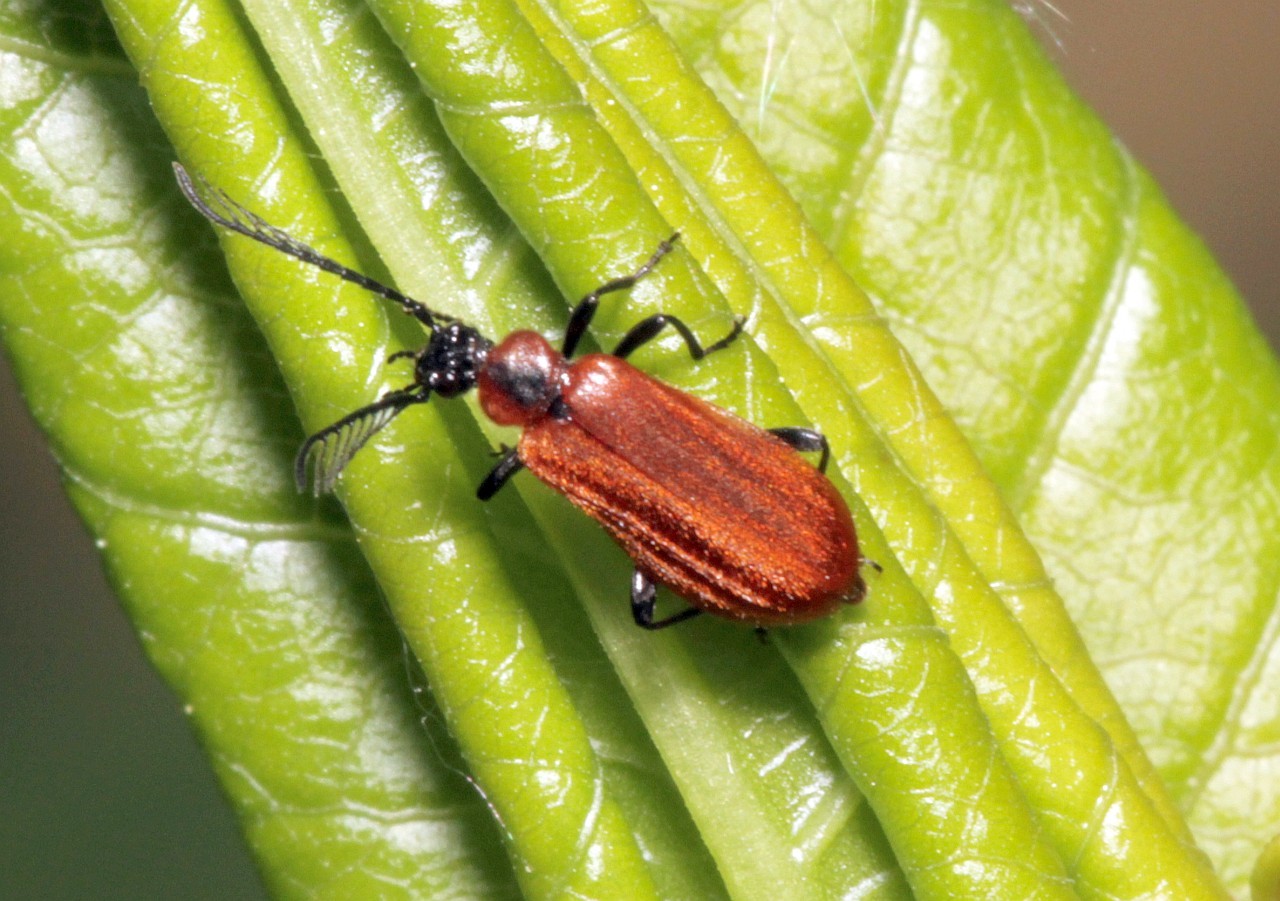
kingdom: Animalia
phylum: Arthropoda
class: Insecta
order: Coleoptera
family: Pyrochroidae
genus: Schizotus
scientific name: Schizotus pectinicornis
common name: Scarce cardinal beetle
